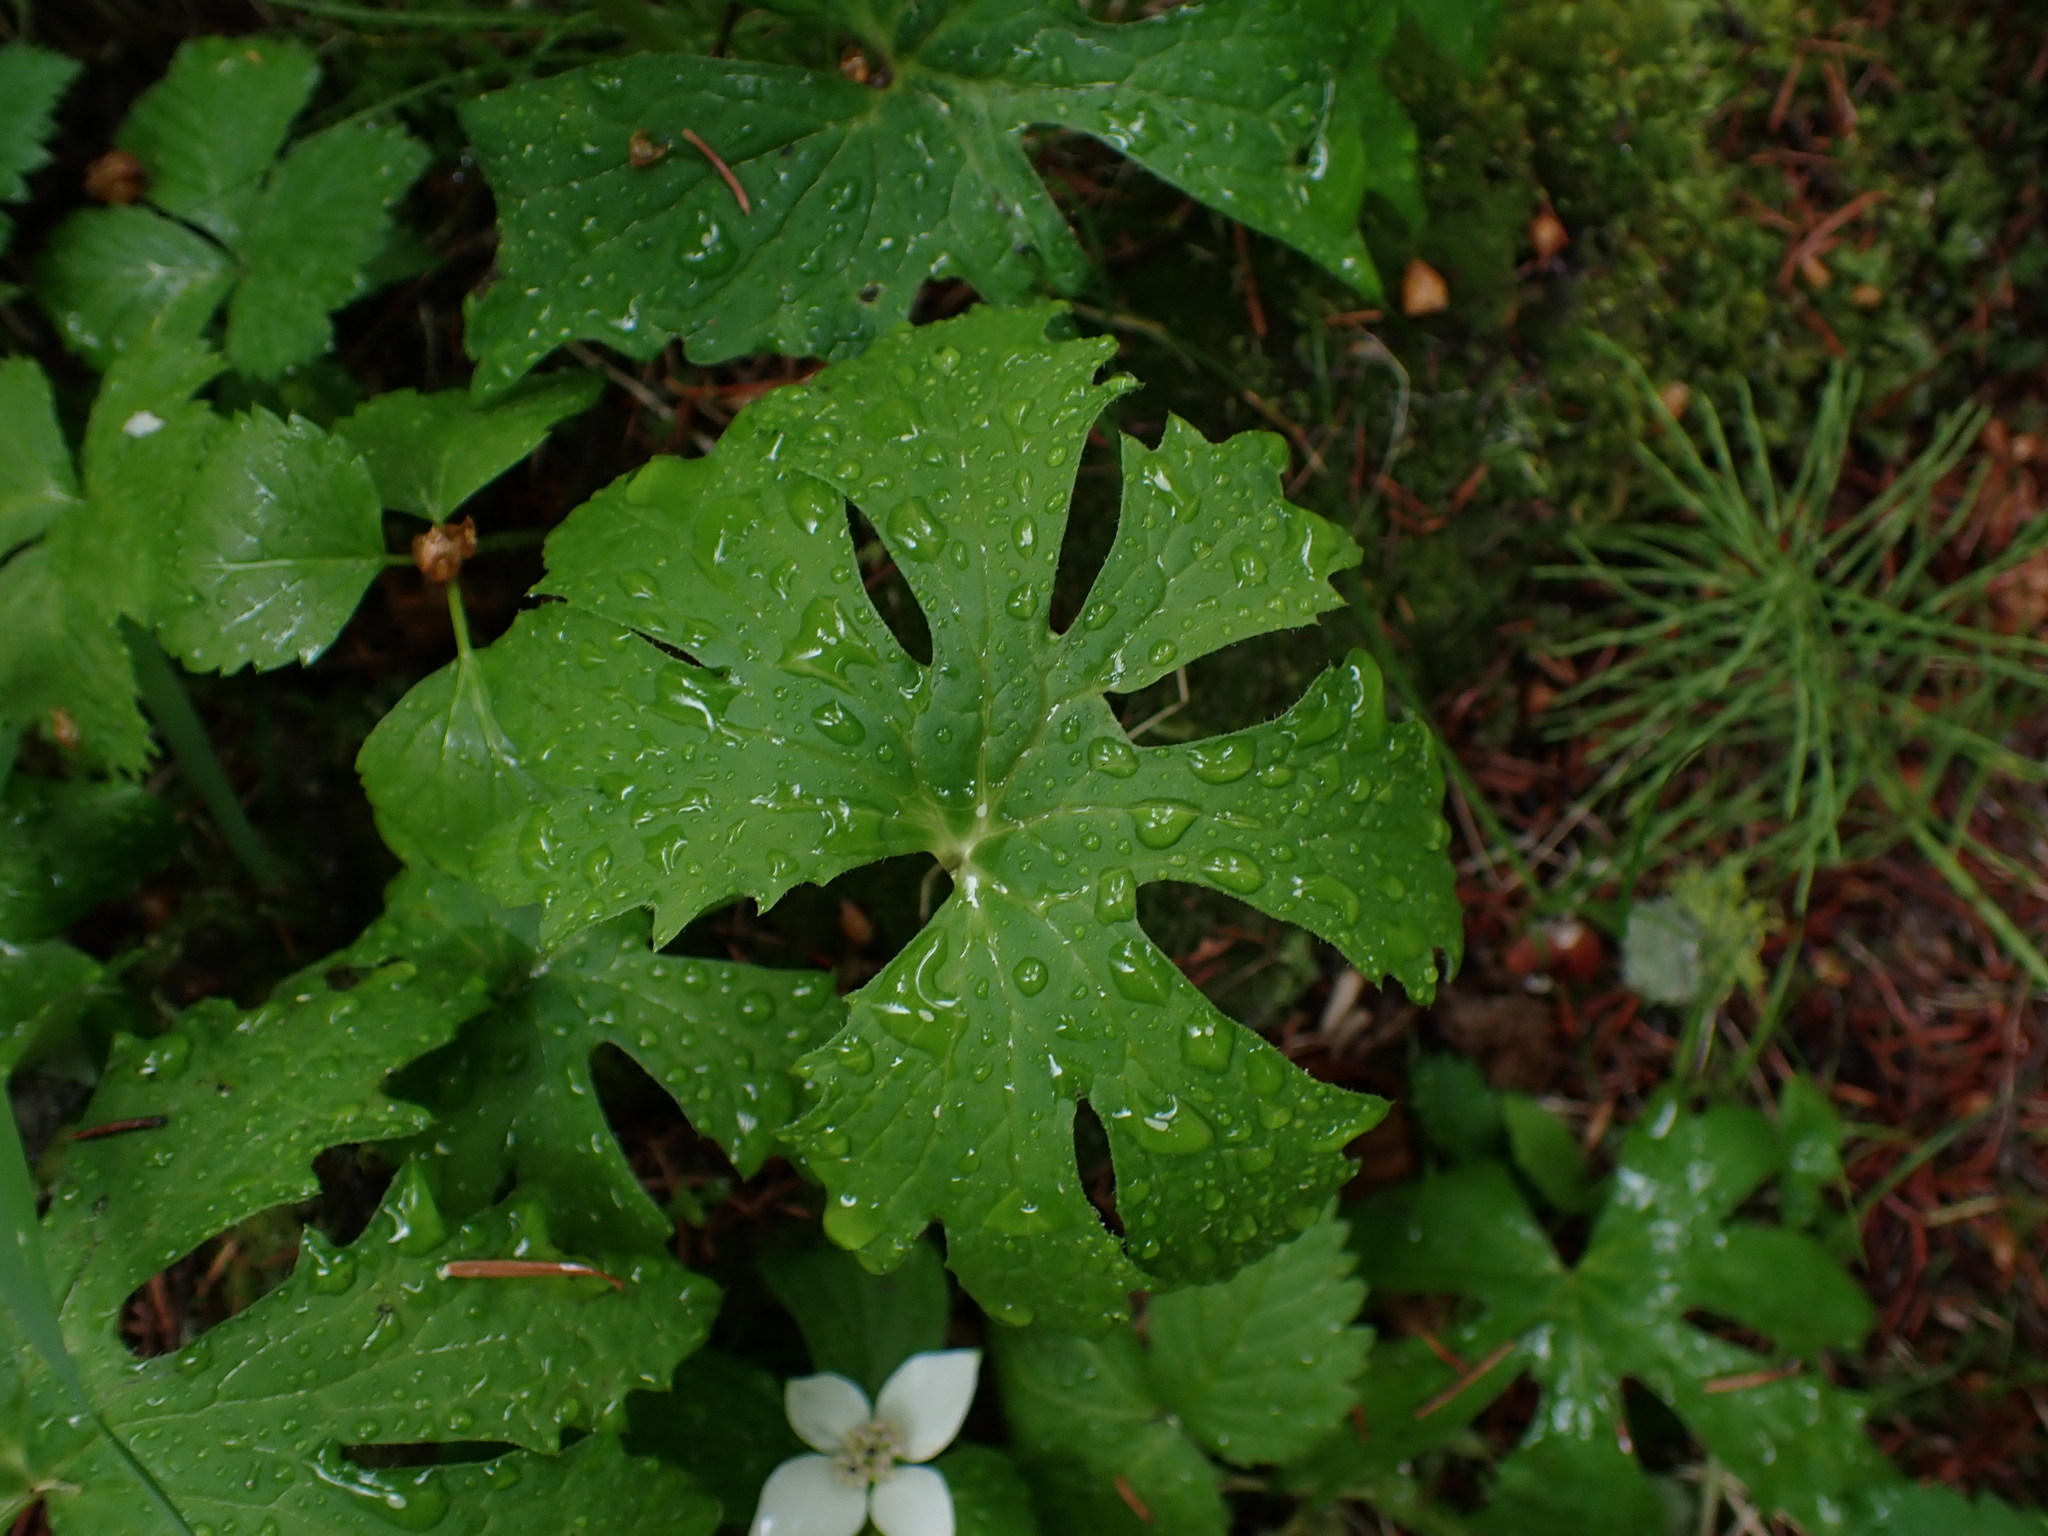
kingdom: Plantae
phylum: Tracheophyta
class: Magnoliopsida
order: Asterales
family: Asteraceae
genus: Petasites
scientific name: Petasites frigidus
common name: Arctic butterbur
